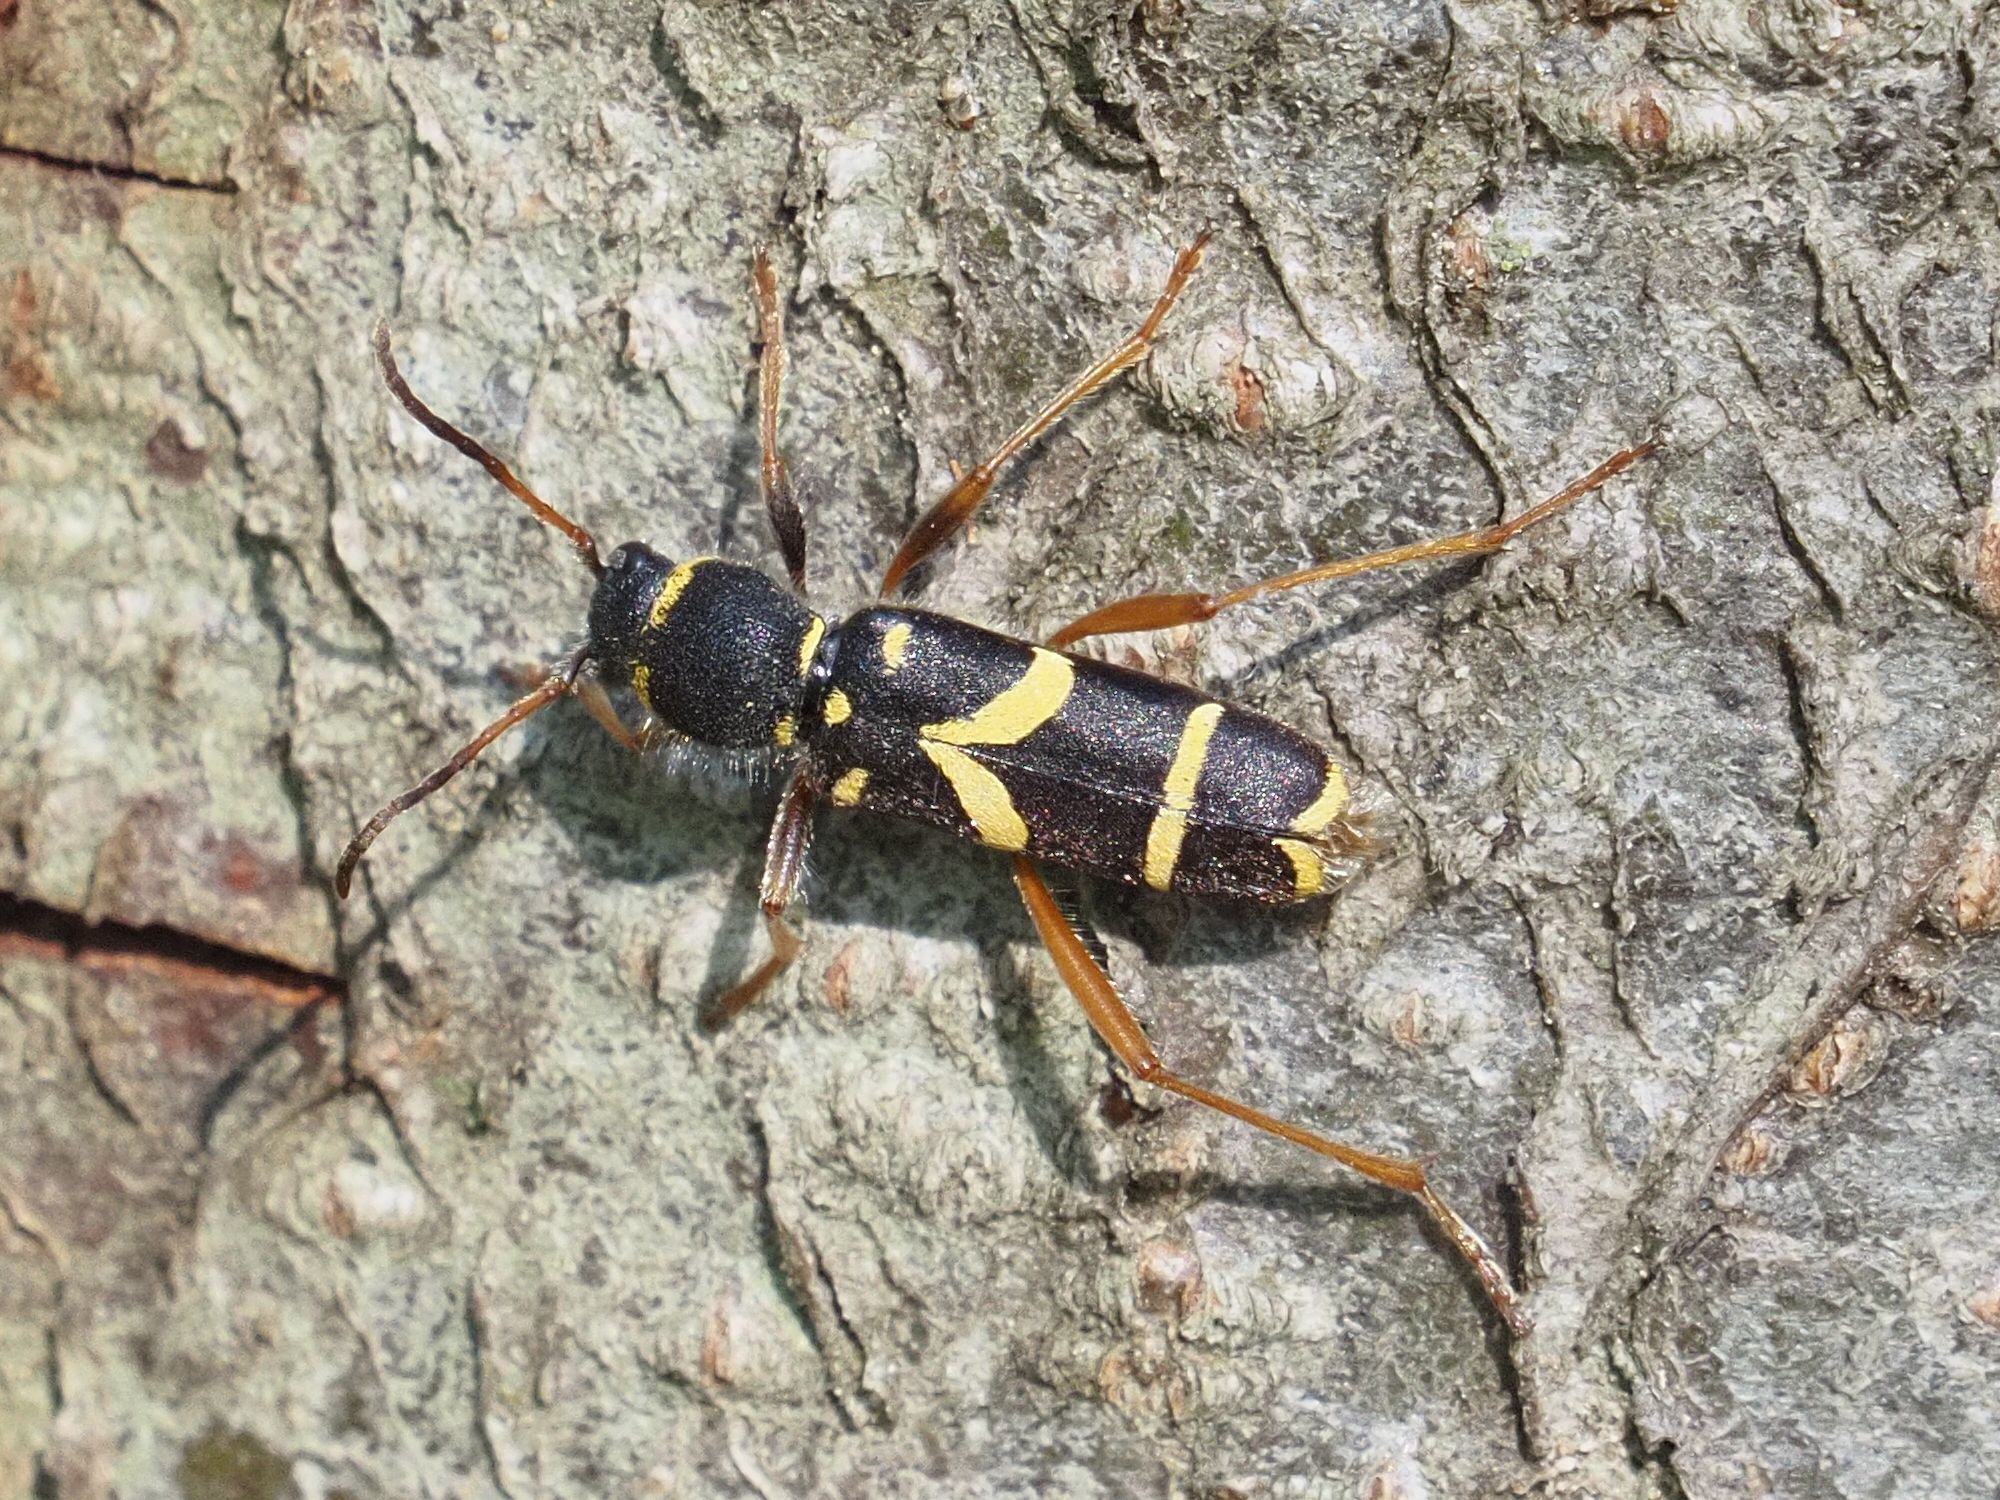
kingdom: Animalia
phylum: Arthropoda
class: Insecta
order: Coleoptera
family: Cerambycidae
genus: Clytus
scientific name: Clytus arietis
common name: Wasp beetle
